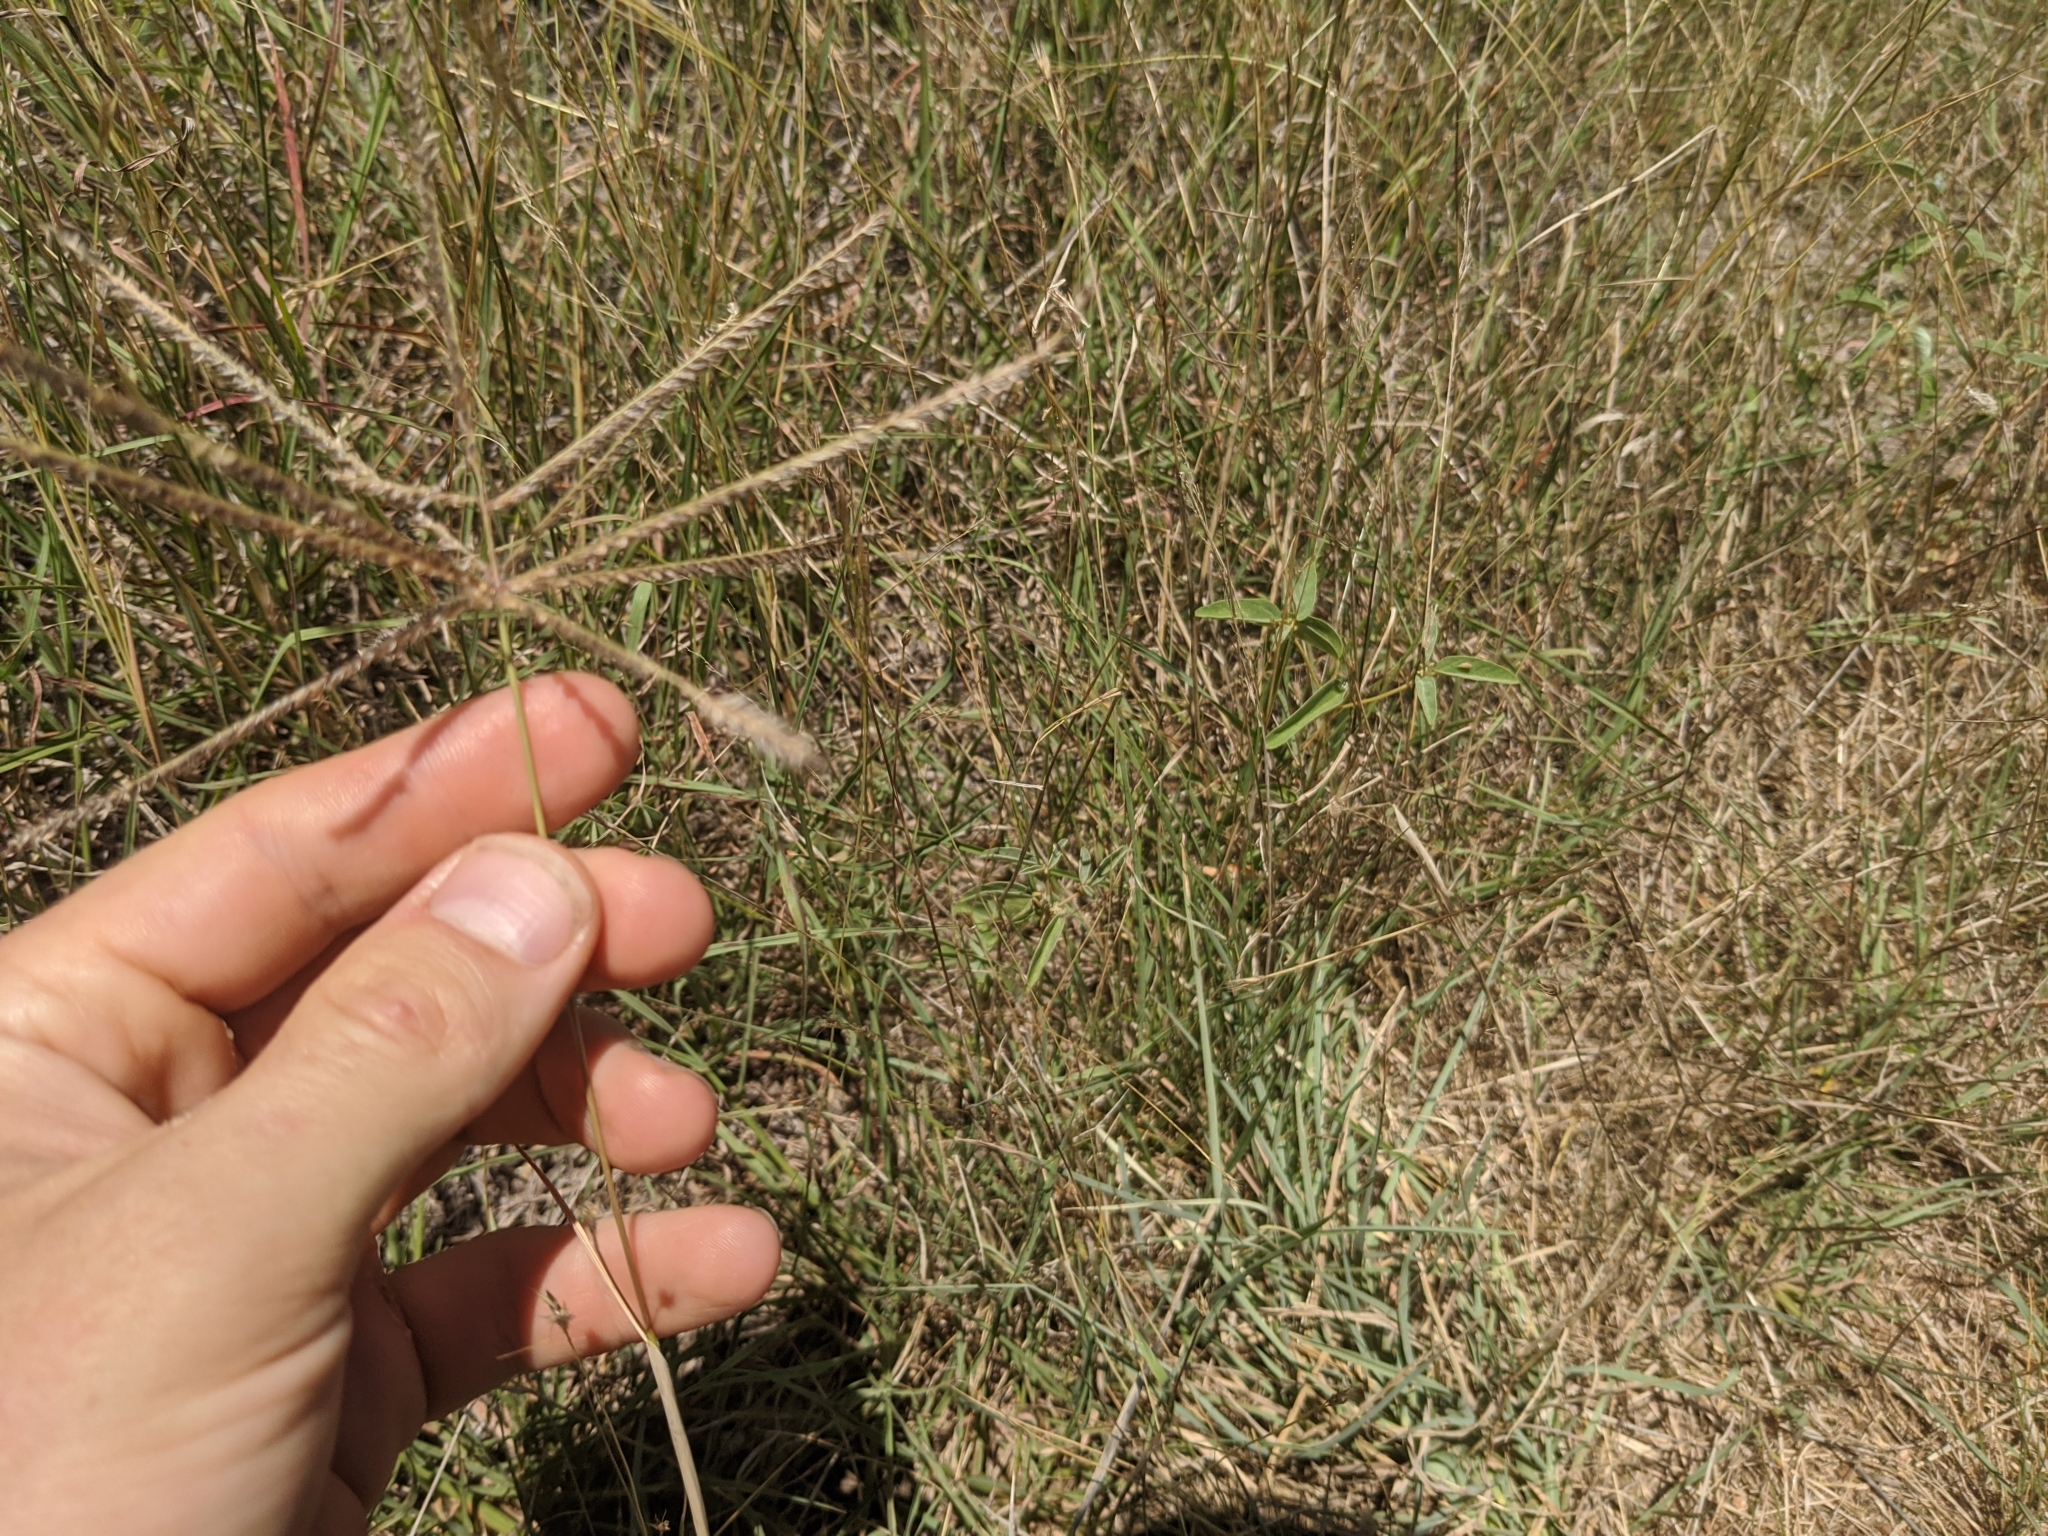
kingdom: Plantae
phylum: Tracheophyta
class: Liliopsida
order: Poales
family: Poaceae
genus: Chloris
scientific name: Chloris verticillata
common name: Tumble windmill grass
